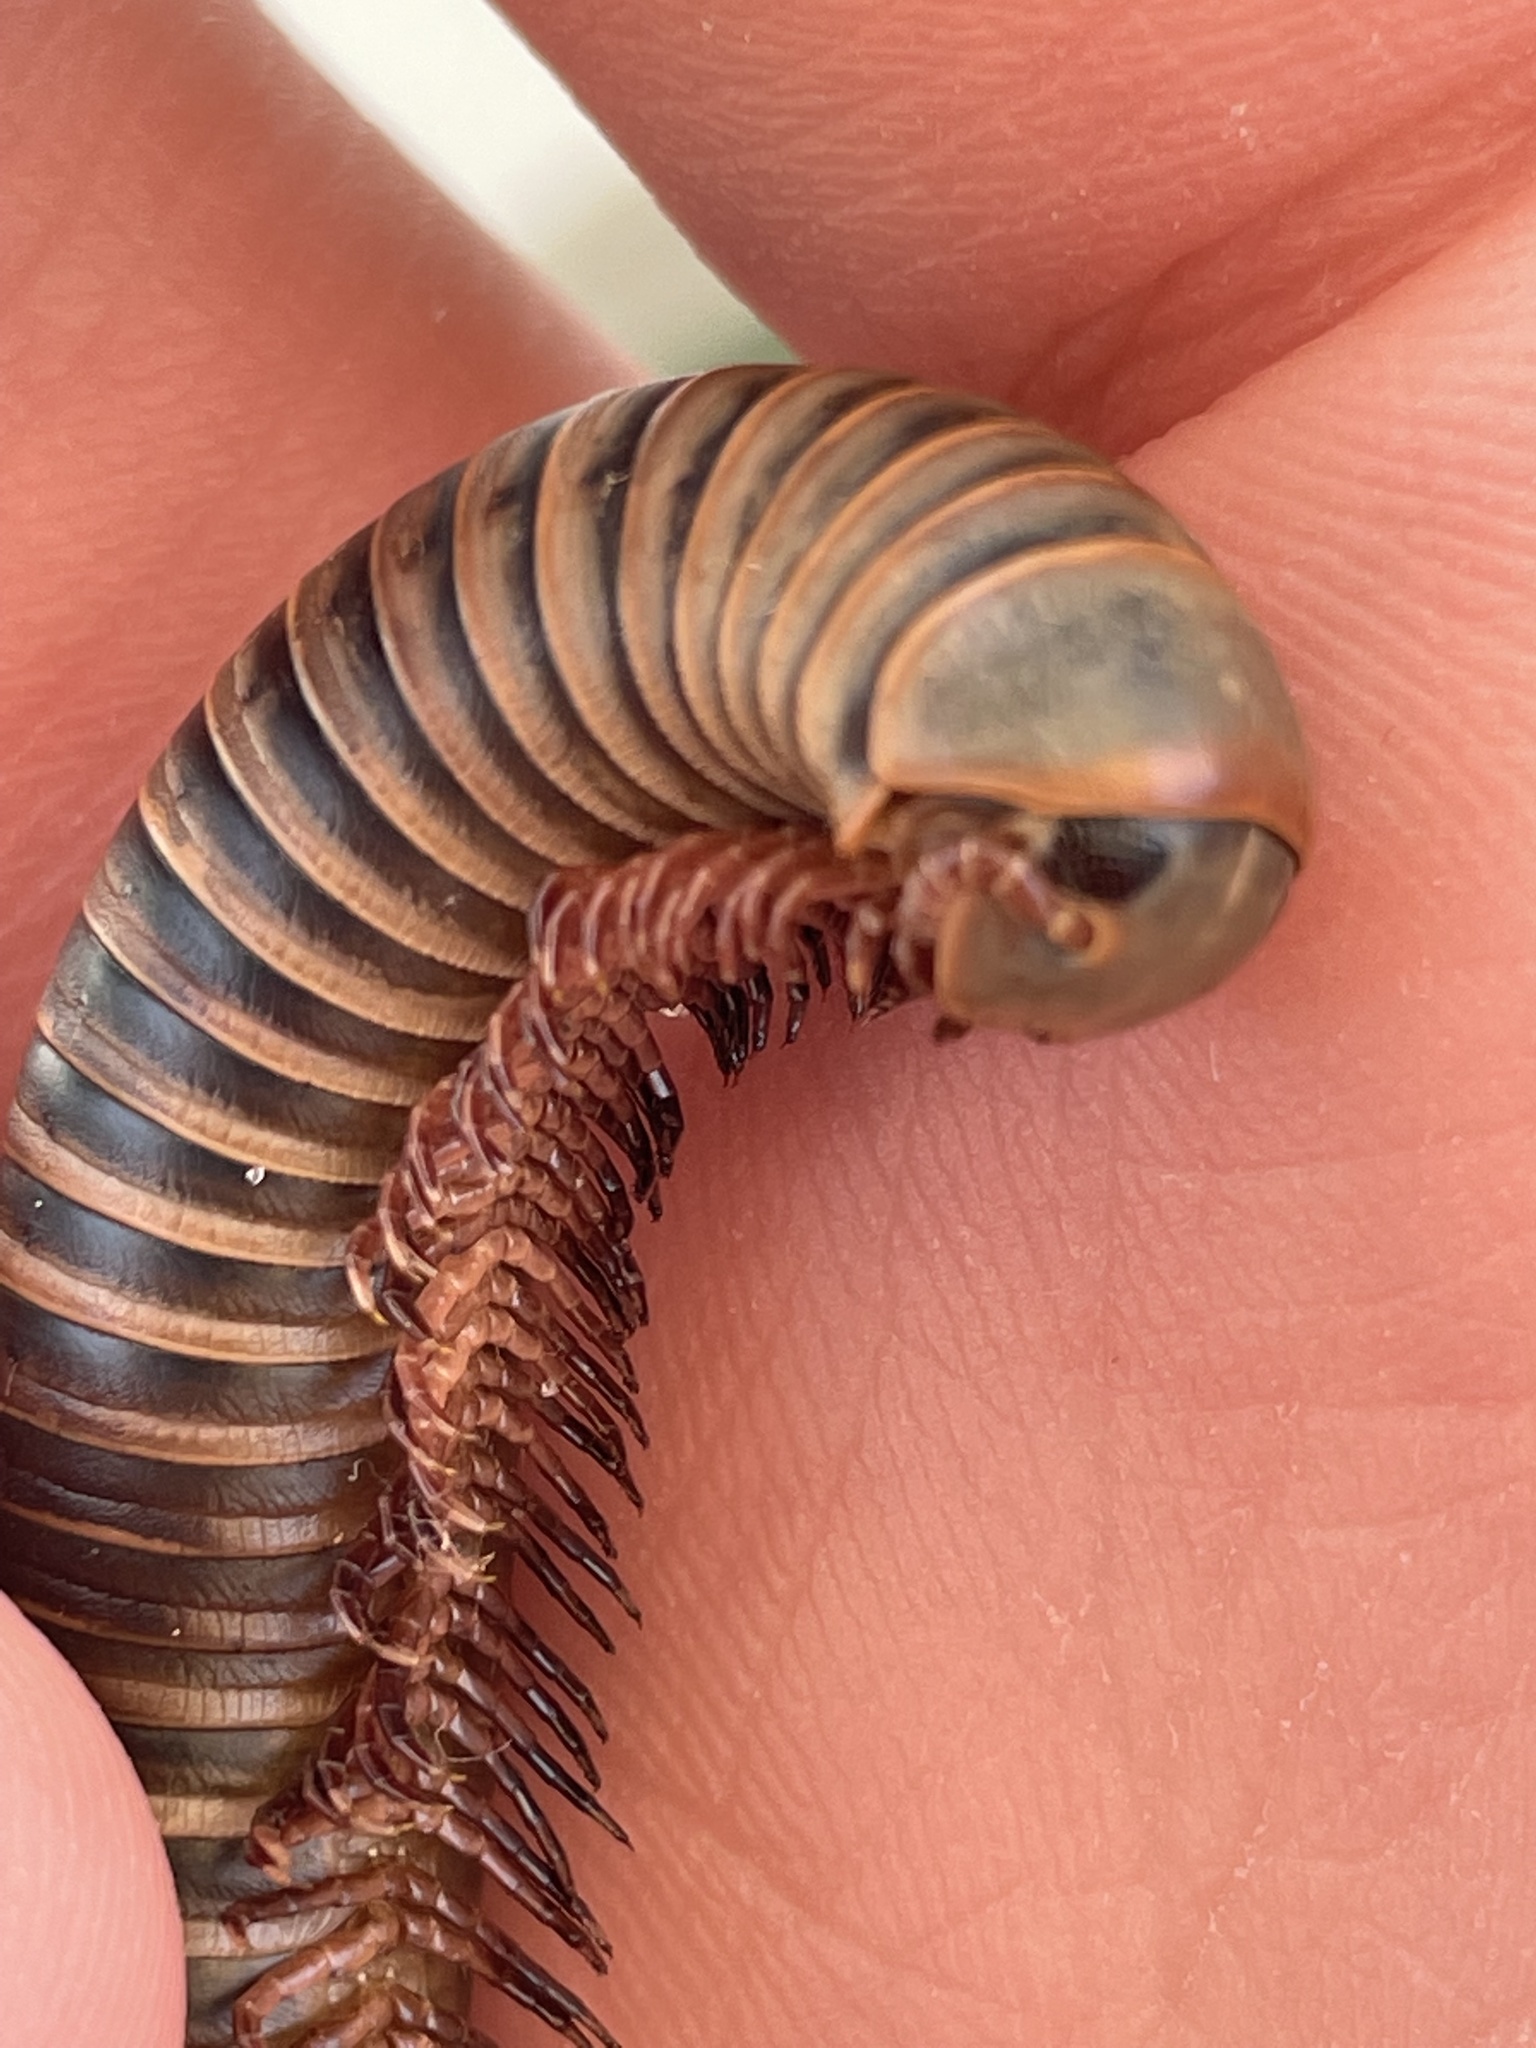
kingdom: Animalia
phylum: Arthropoda
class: Diplopoda
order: Spirobolida
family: Spirobolidae
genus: Narceus
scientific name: Narceus
